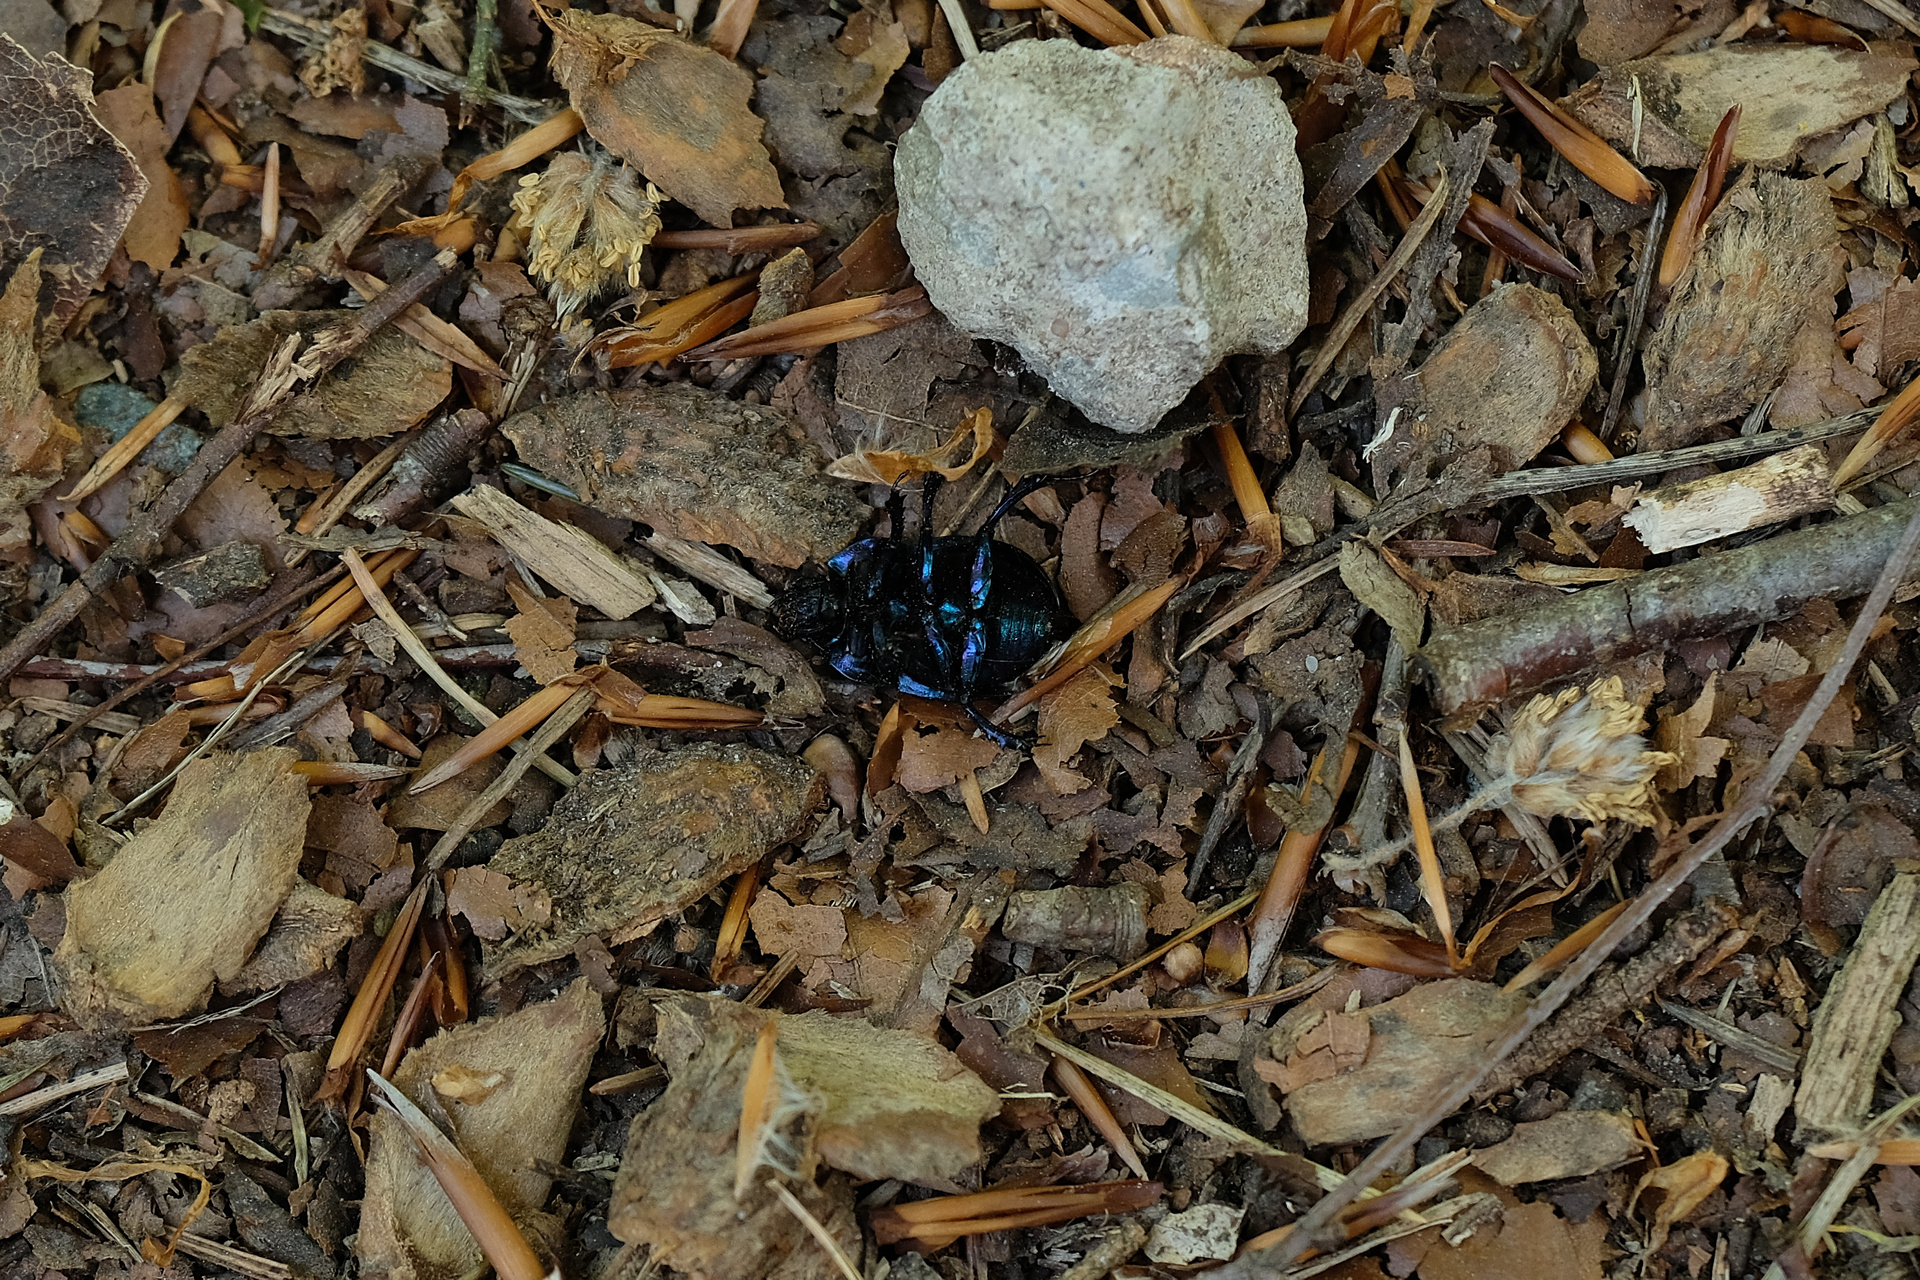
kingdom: Animalia
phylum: Arthropoda
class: Insecta
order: Coleoptera
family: Geotrupidae
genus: Anoplotrupes
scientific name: Anoplotrupes stercorosus
